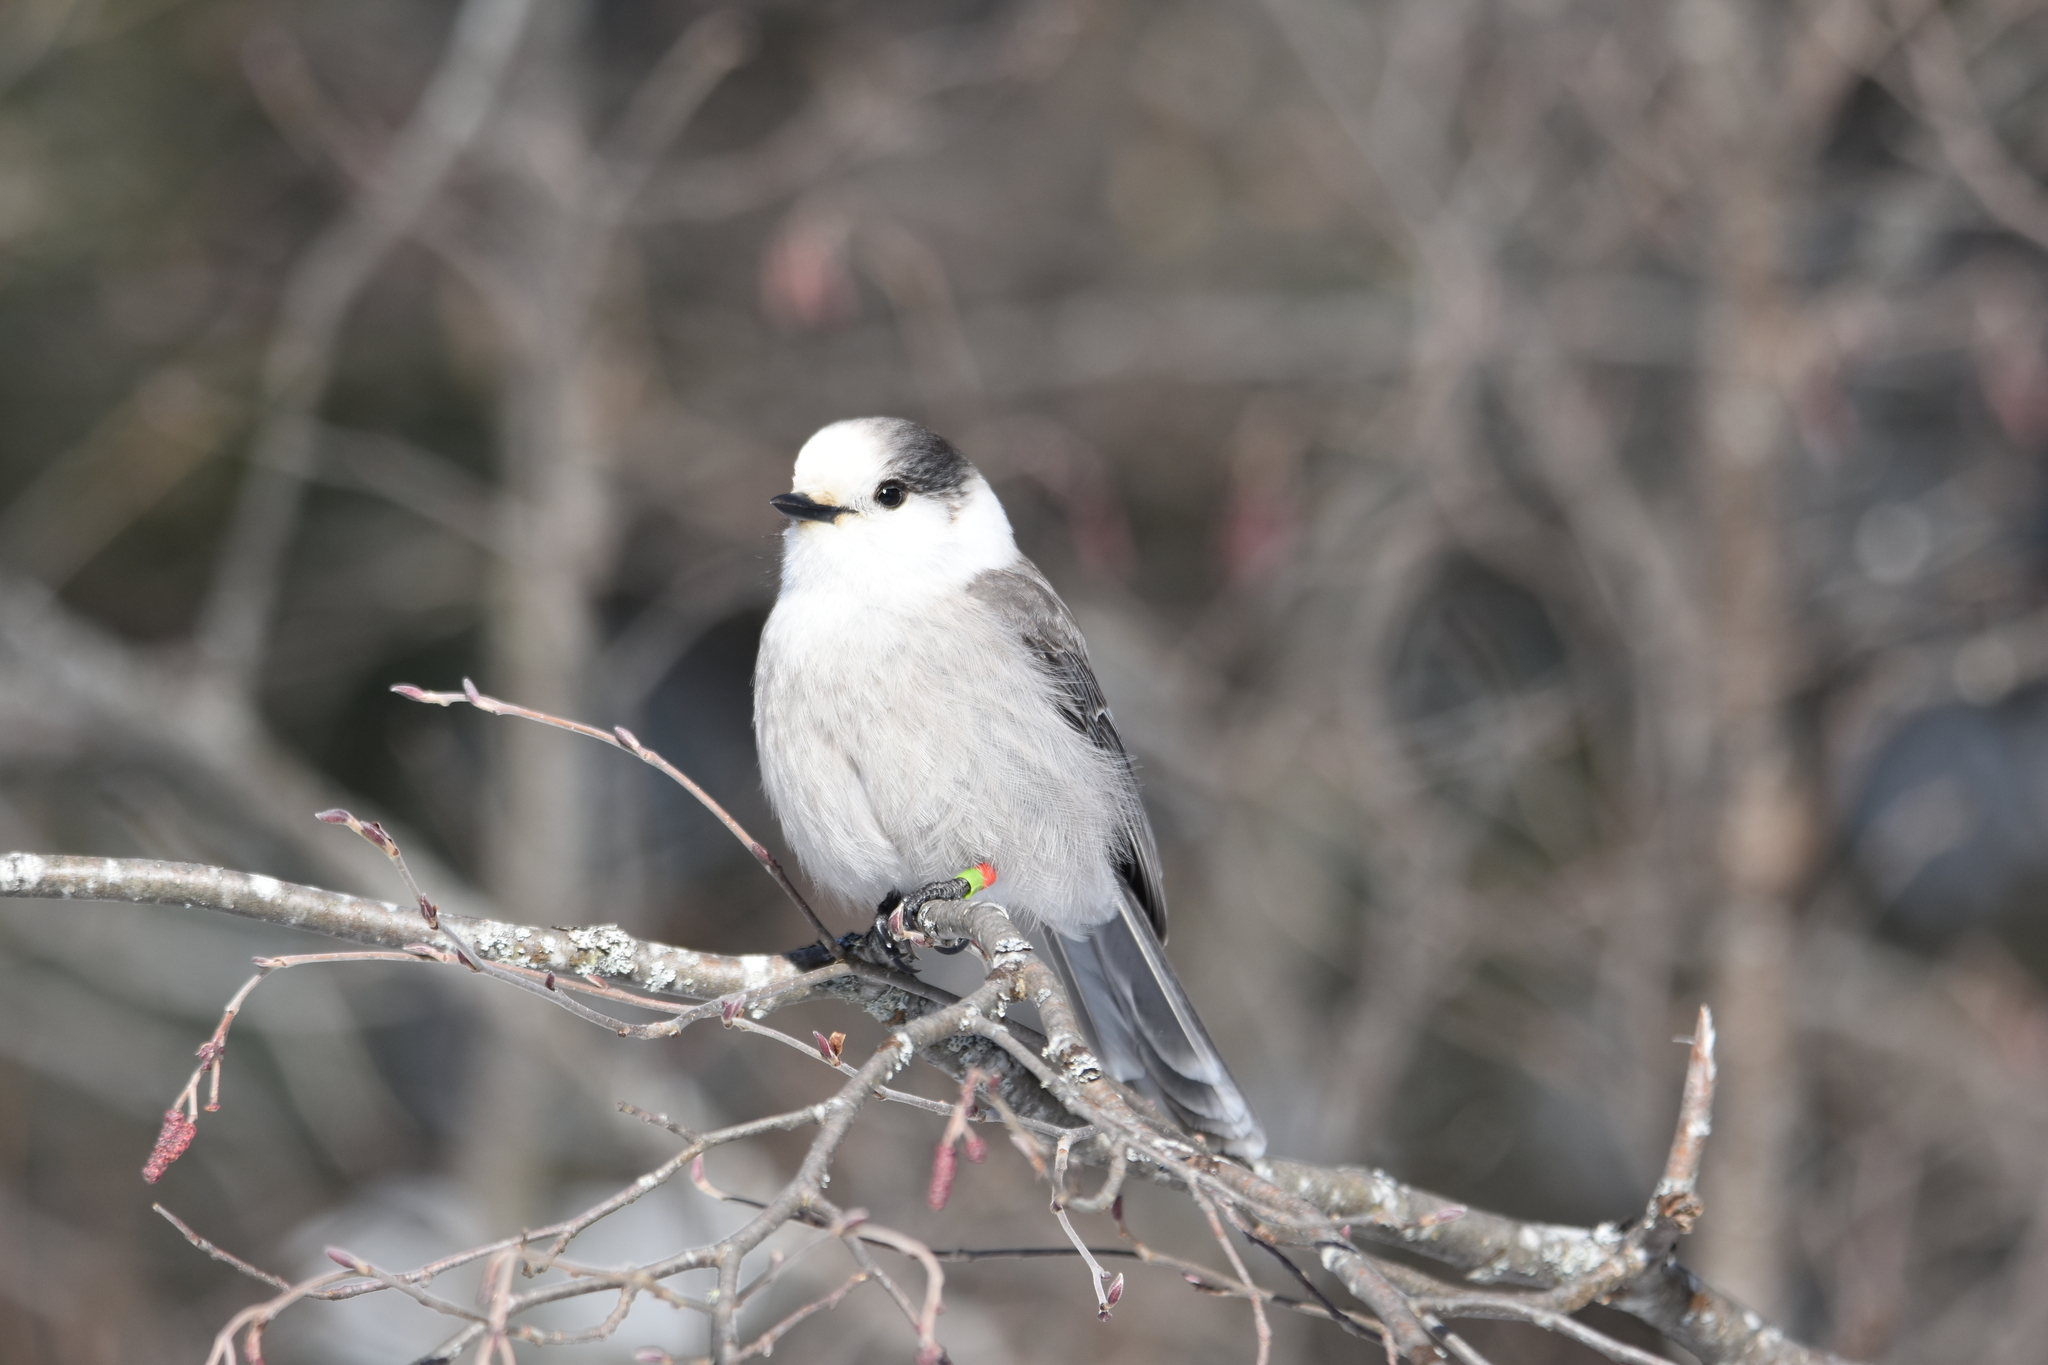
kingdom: Animalia
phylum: Chordata
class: Aves
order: Passeriformes
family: Corvidae
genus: Perisoreus
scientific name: Perisoreus canadensis
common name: Gray jay
